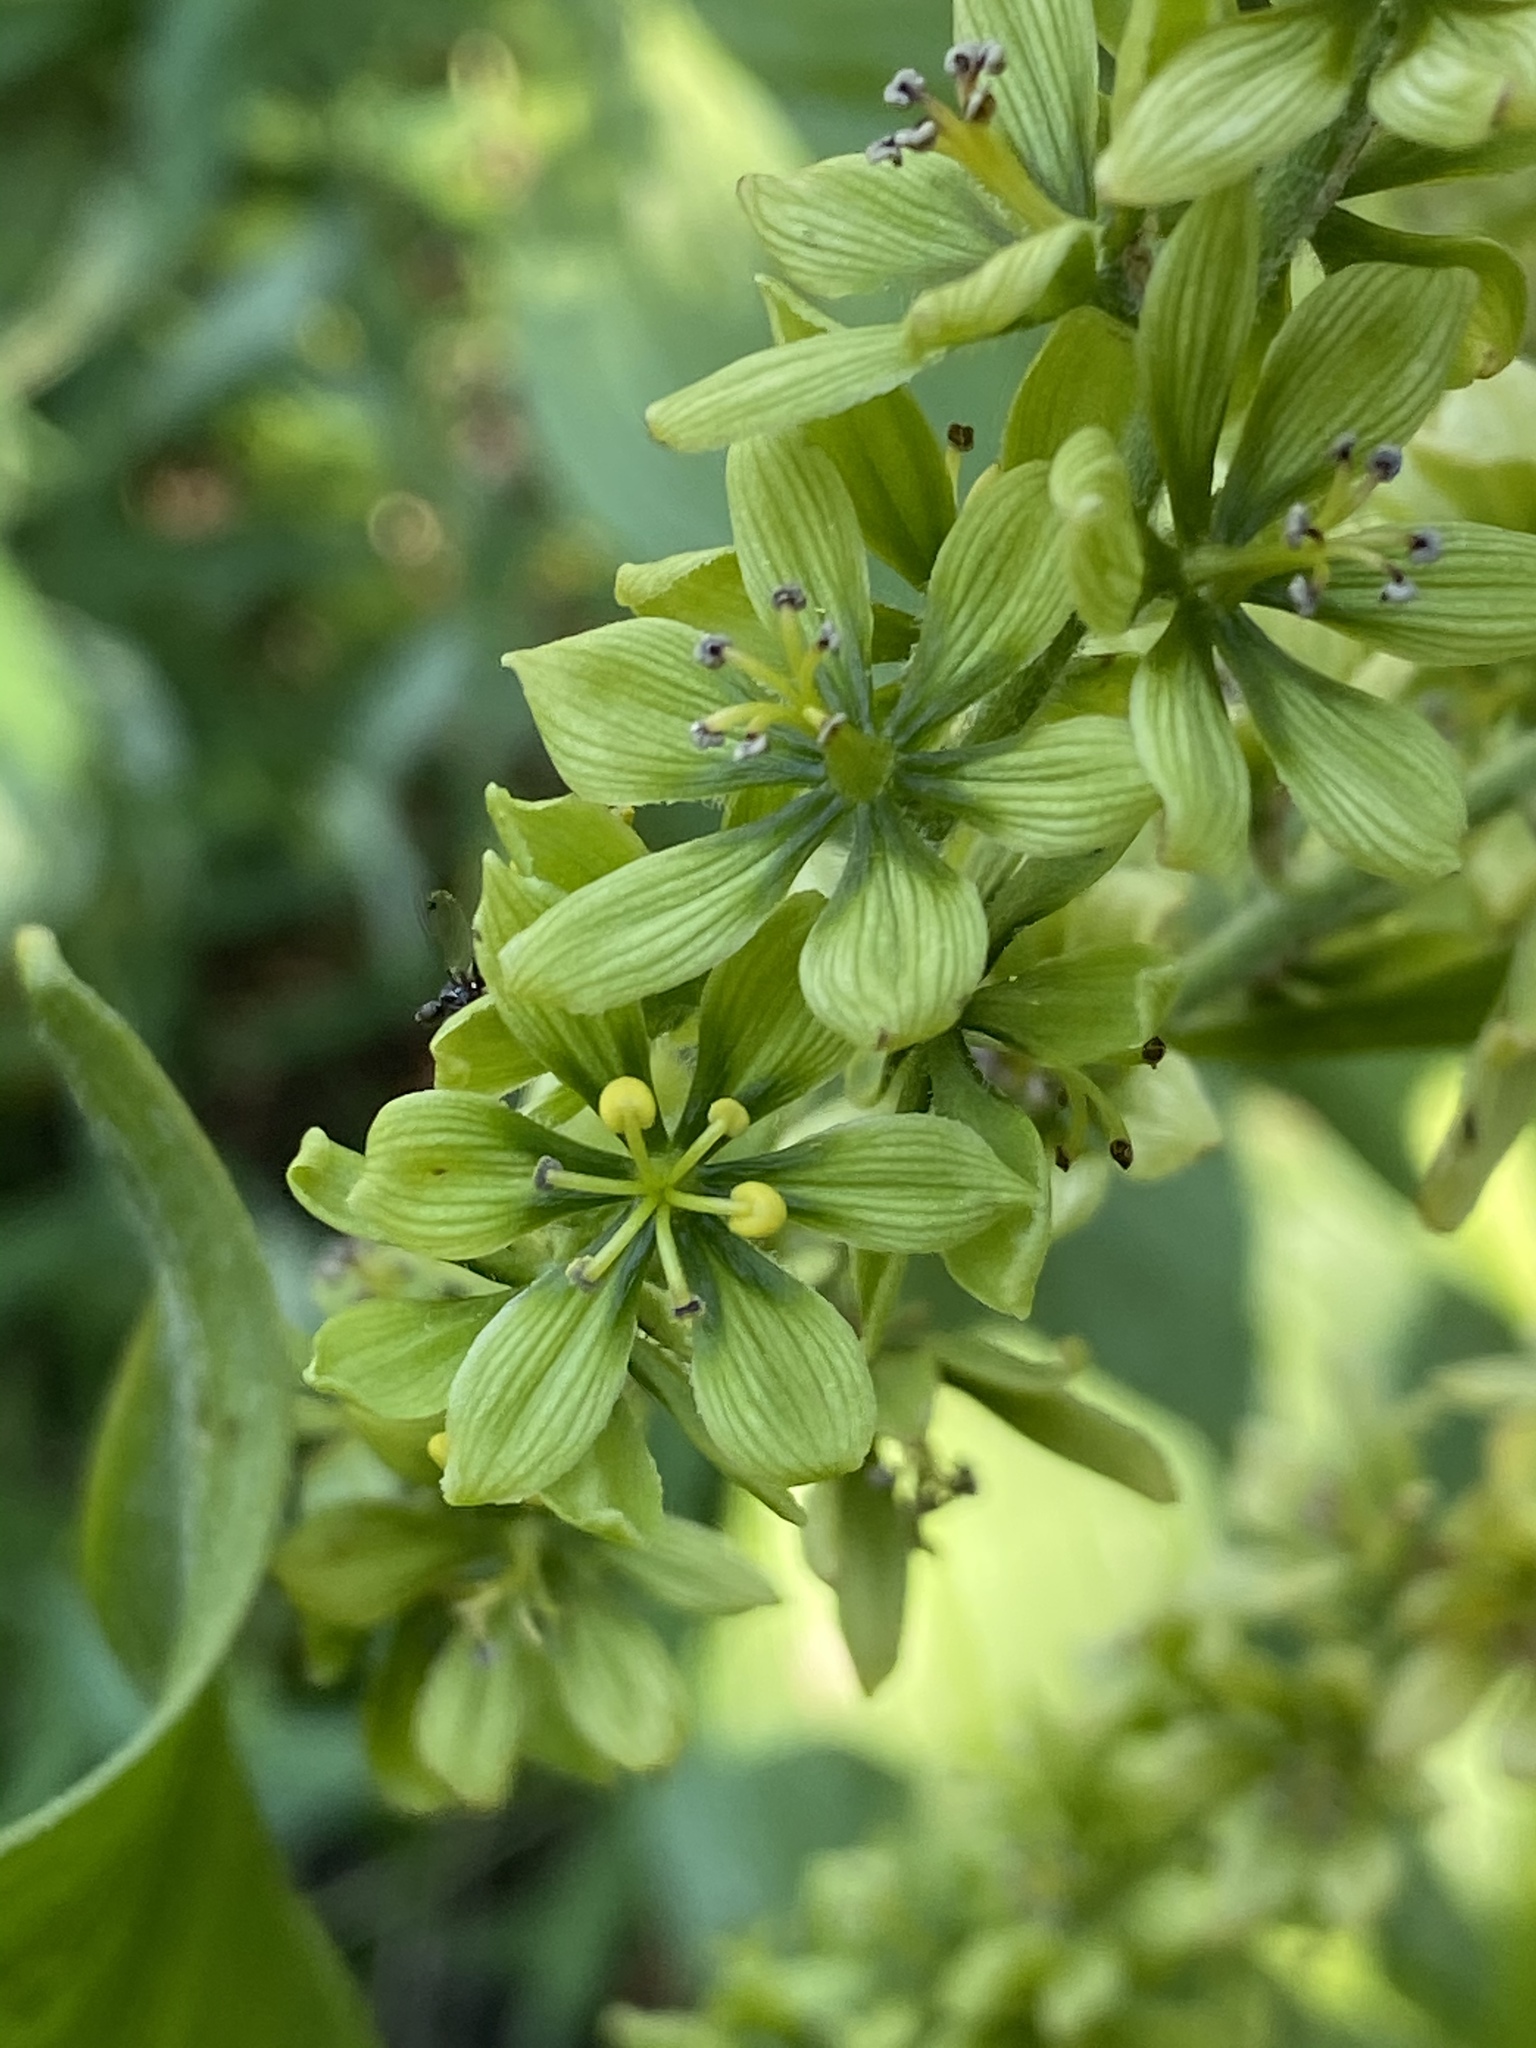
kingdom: Plantae
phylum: Tracheophyta
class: Liliopsida
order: Liliales
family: Melanthiaceae
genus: Veratrum
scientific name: Veratrum viride
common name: American false hellebore
